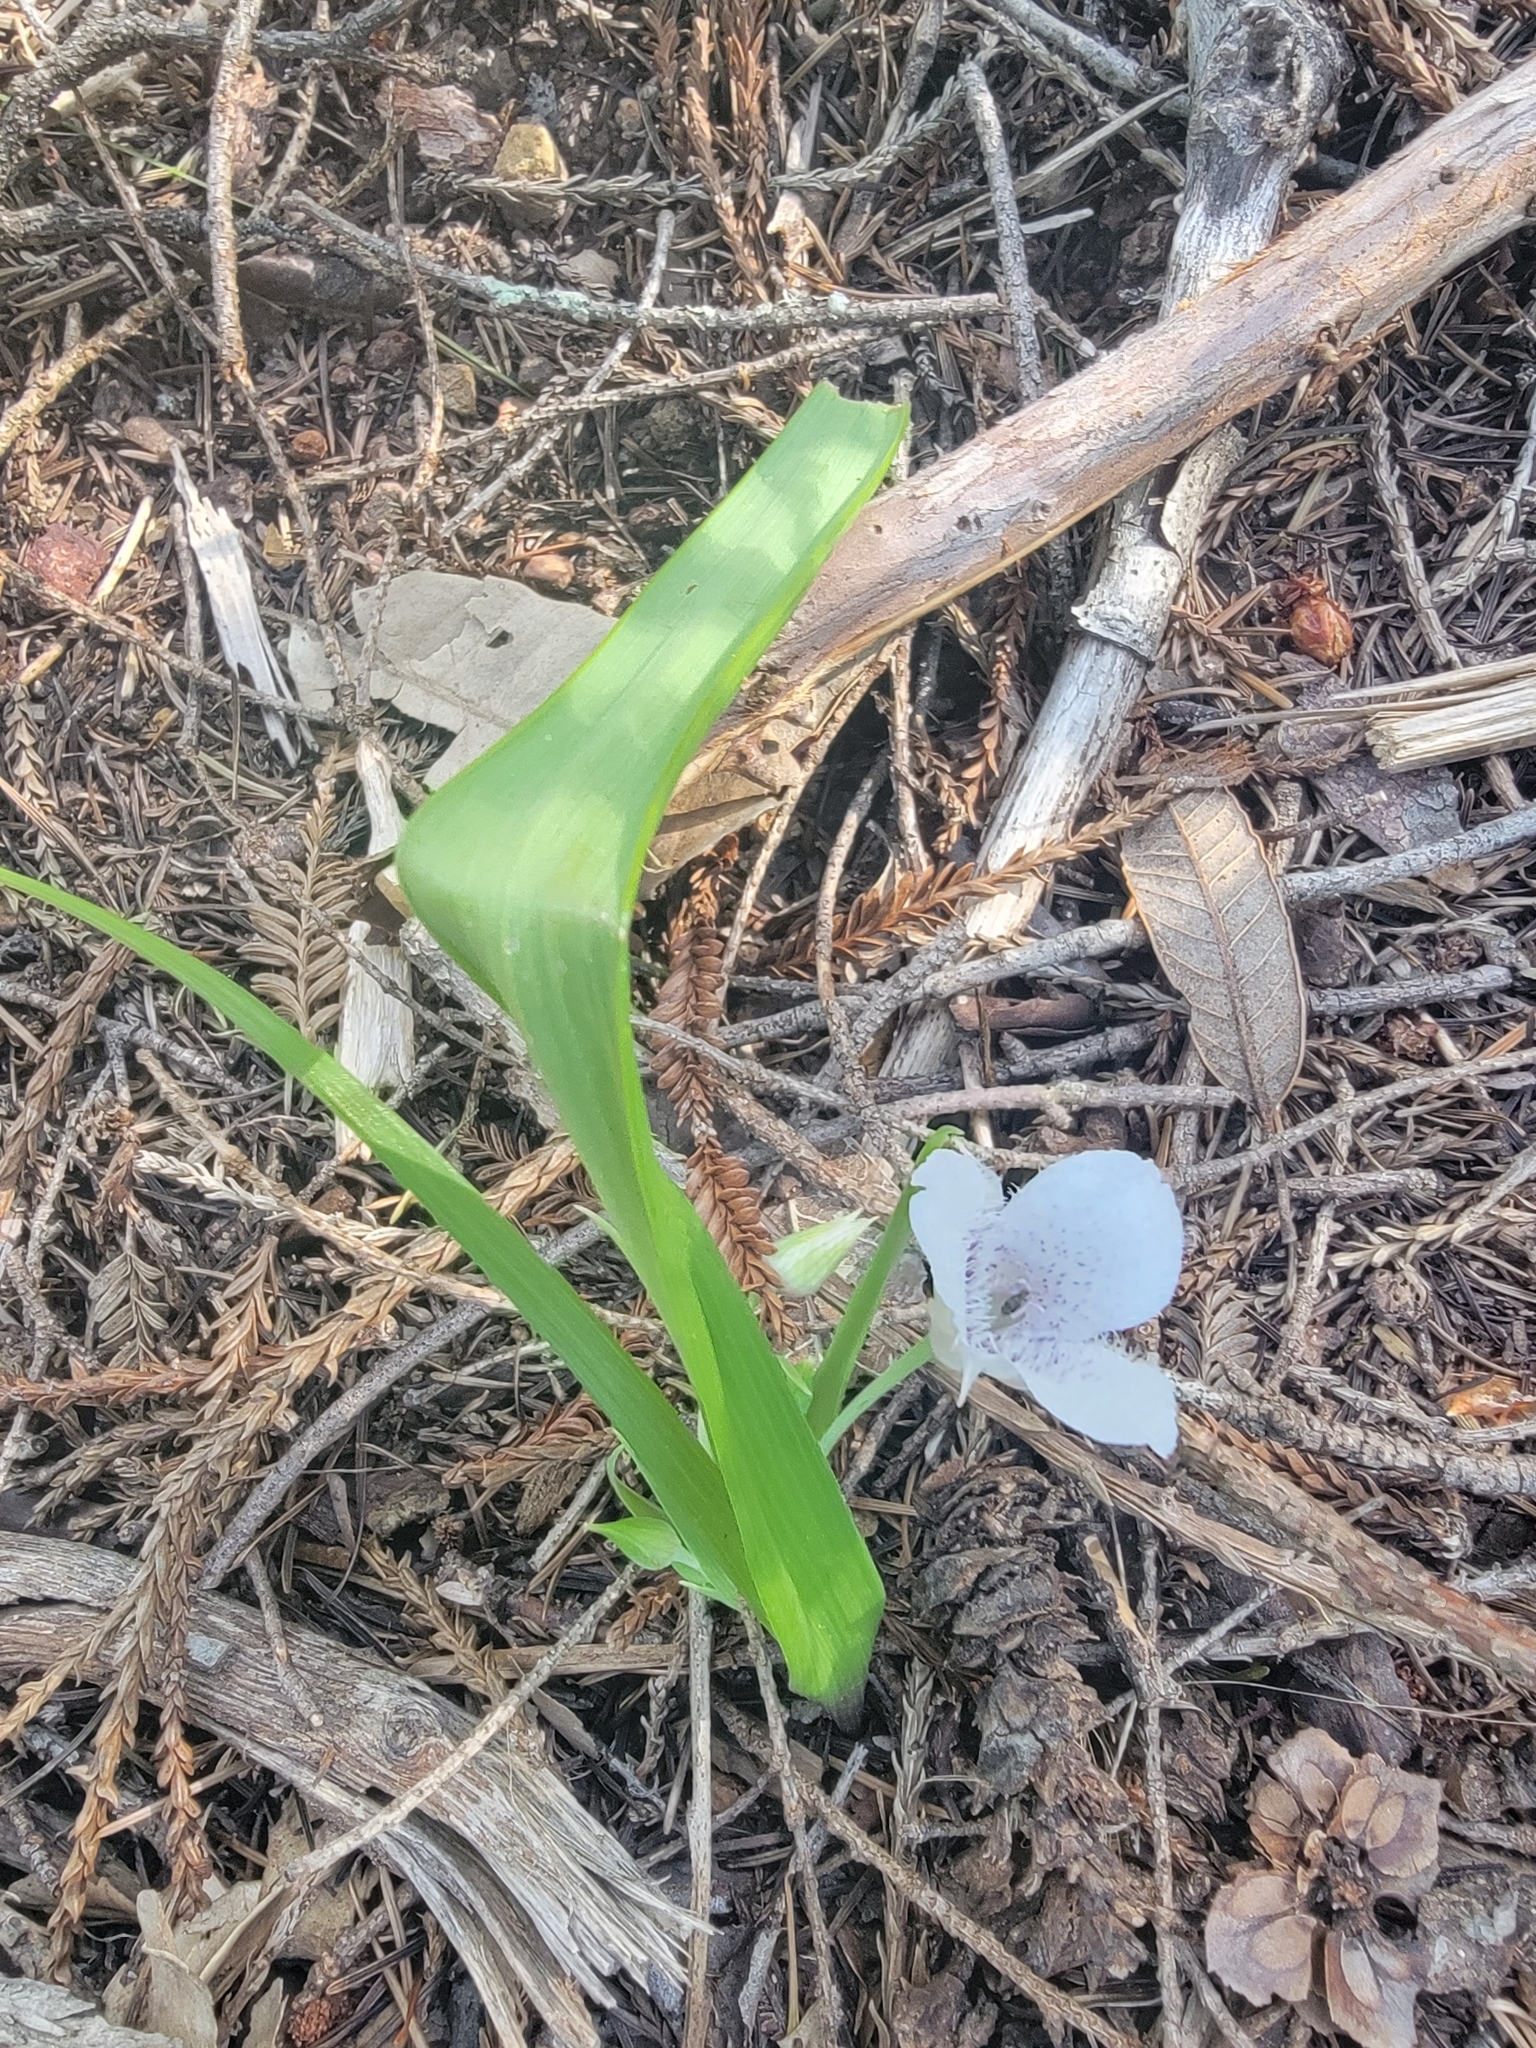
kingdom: Plantae
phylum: Tracheophyta
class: Liliopsida
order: Liliales
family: Liliaceae
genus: Calochortus
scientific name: Calochortus tolmiei
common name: Pussy-ears
